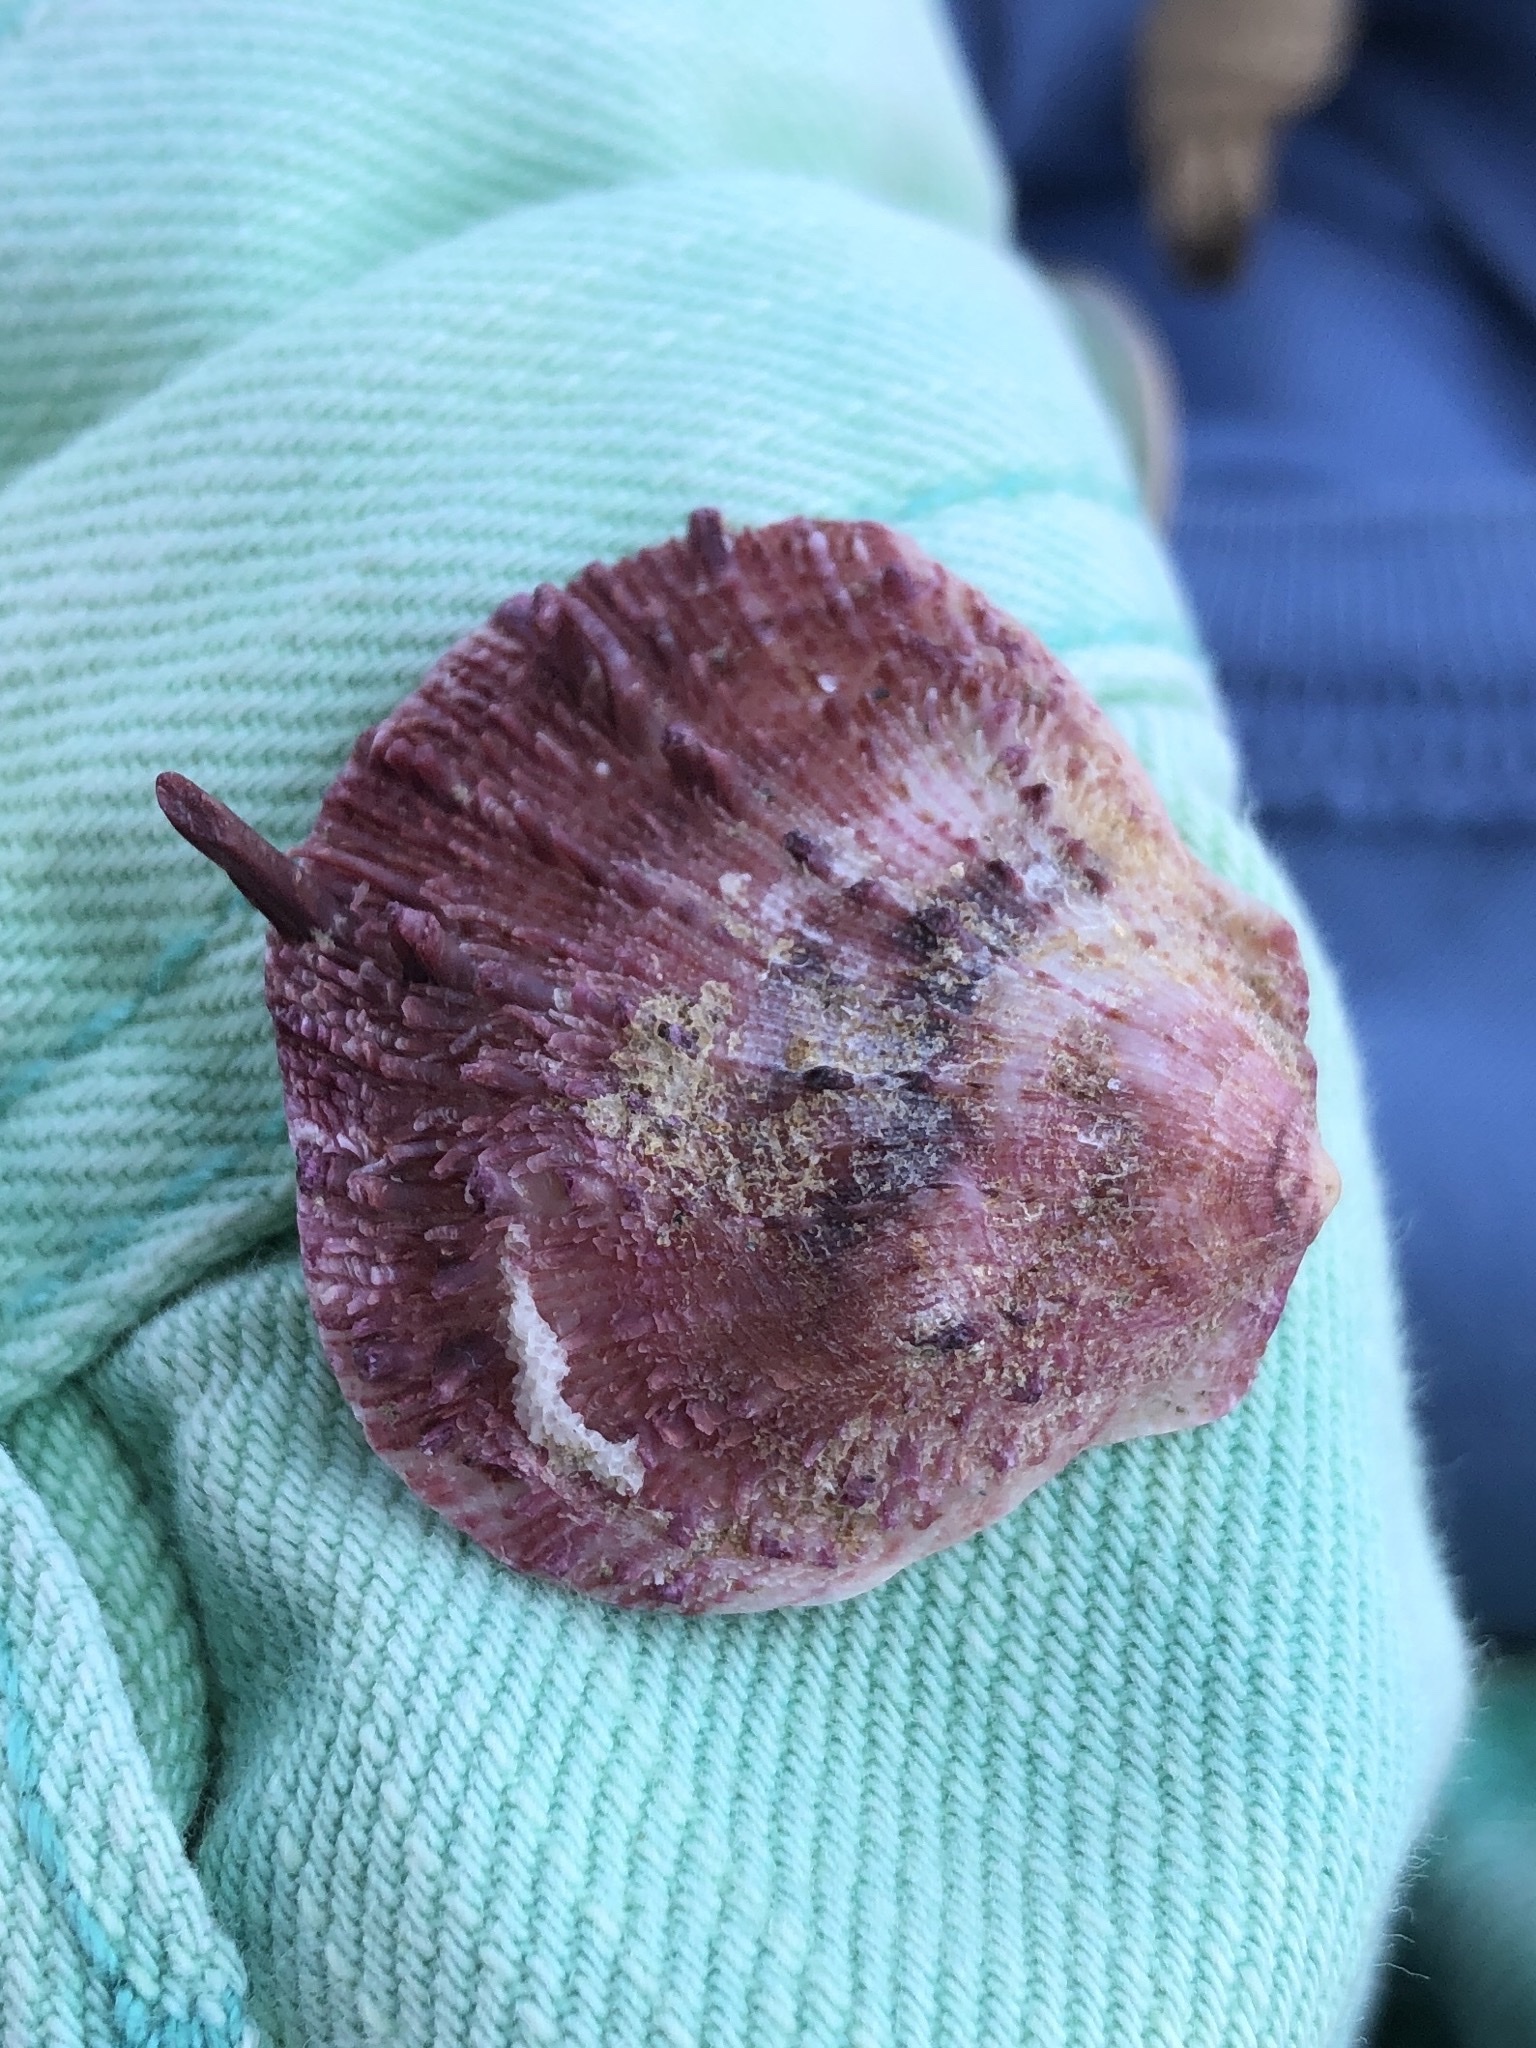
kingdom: Animalia
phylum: Mollusca
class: Bivalvia
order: Pectinida
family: Spondylidae
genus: Spondylus
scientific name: Spondylus gaederopus
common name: European thorny oyster
